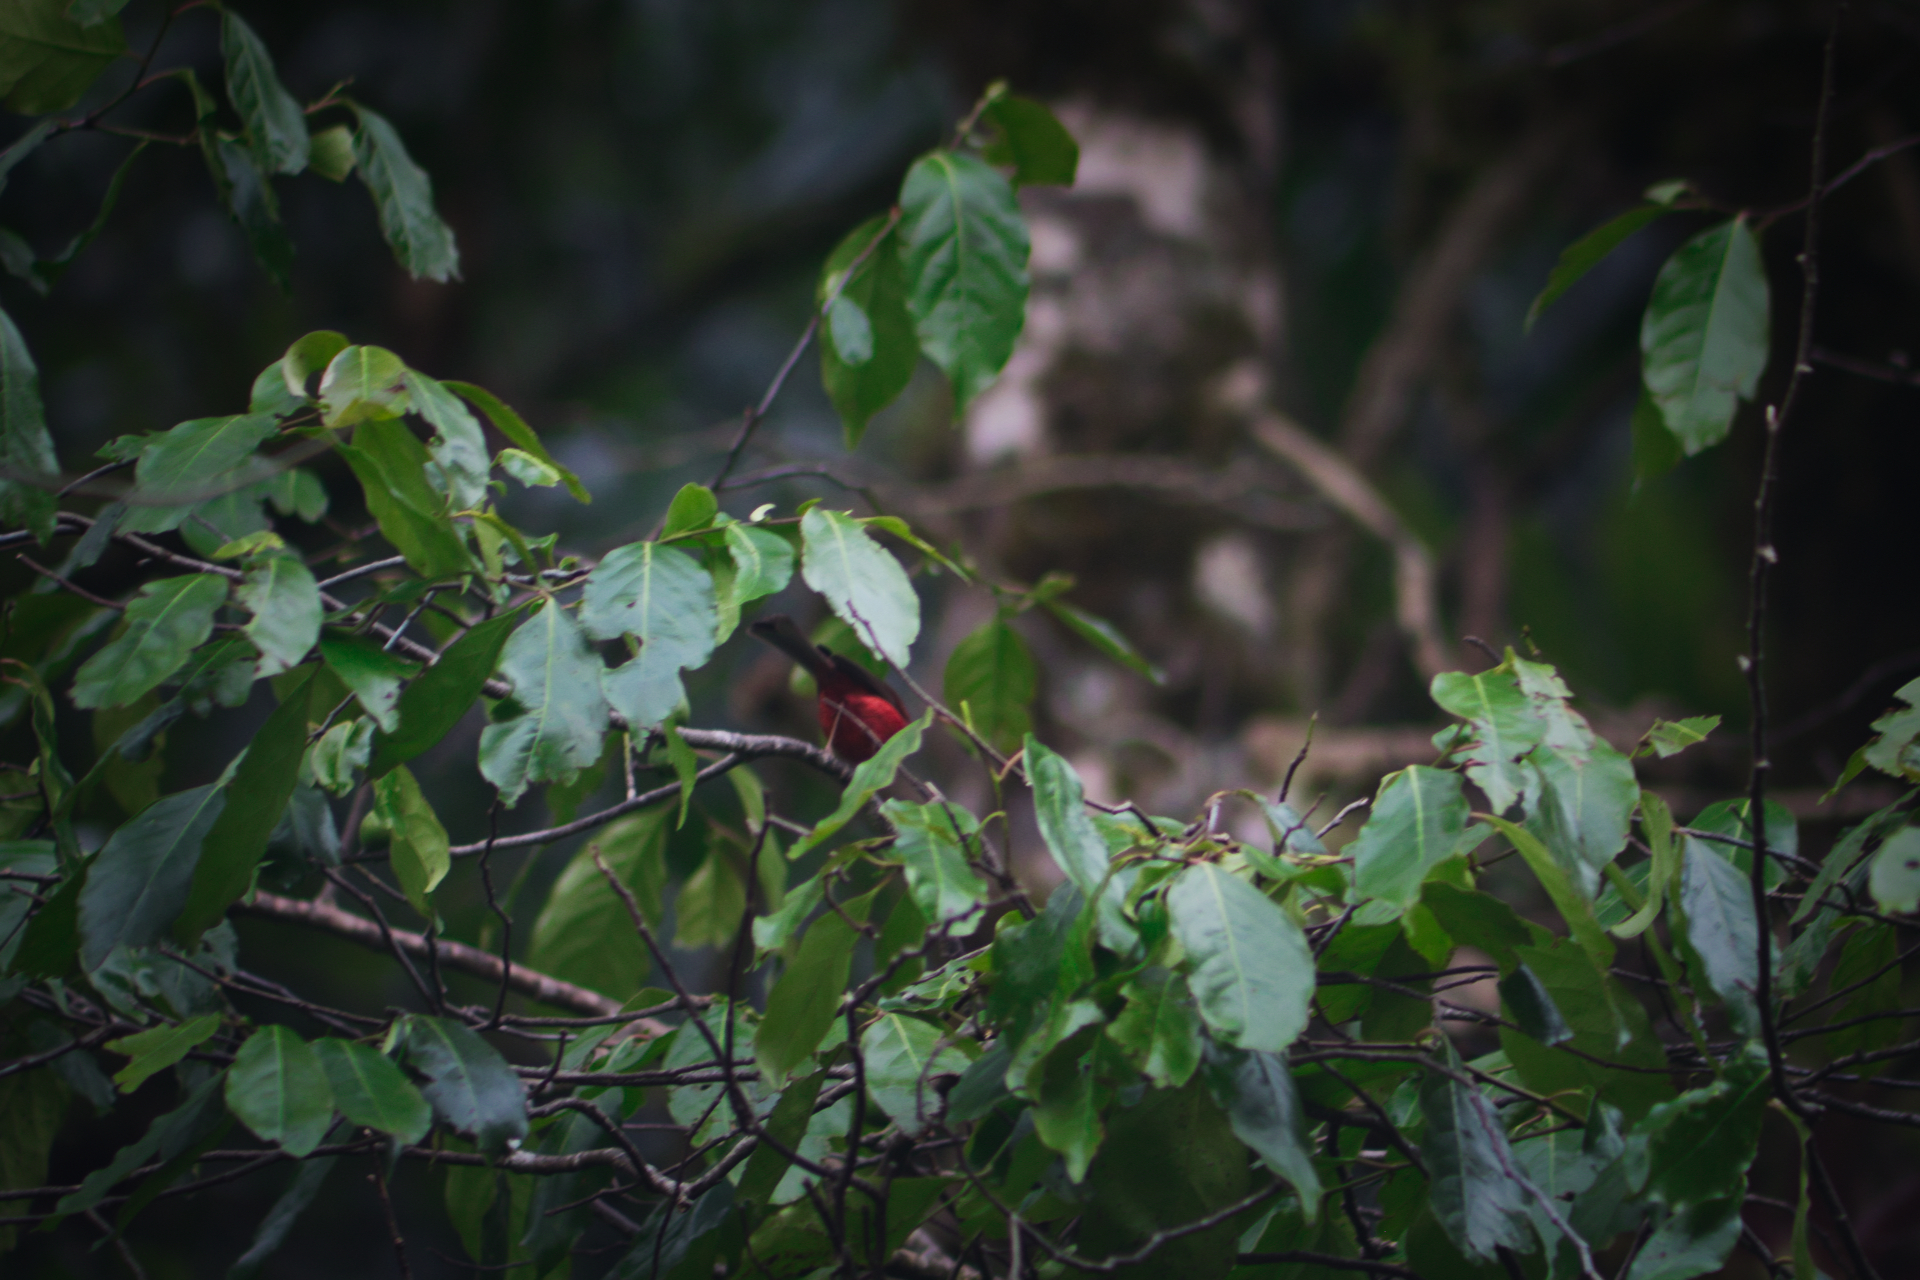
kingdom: Animalia
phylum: Chordata
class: Aves
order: Passeriformes
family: Parulidae
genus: Cardellina
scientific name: Cardellina versicolor
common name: Pink-headed warbler
